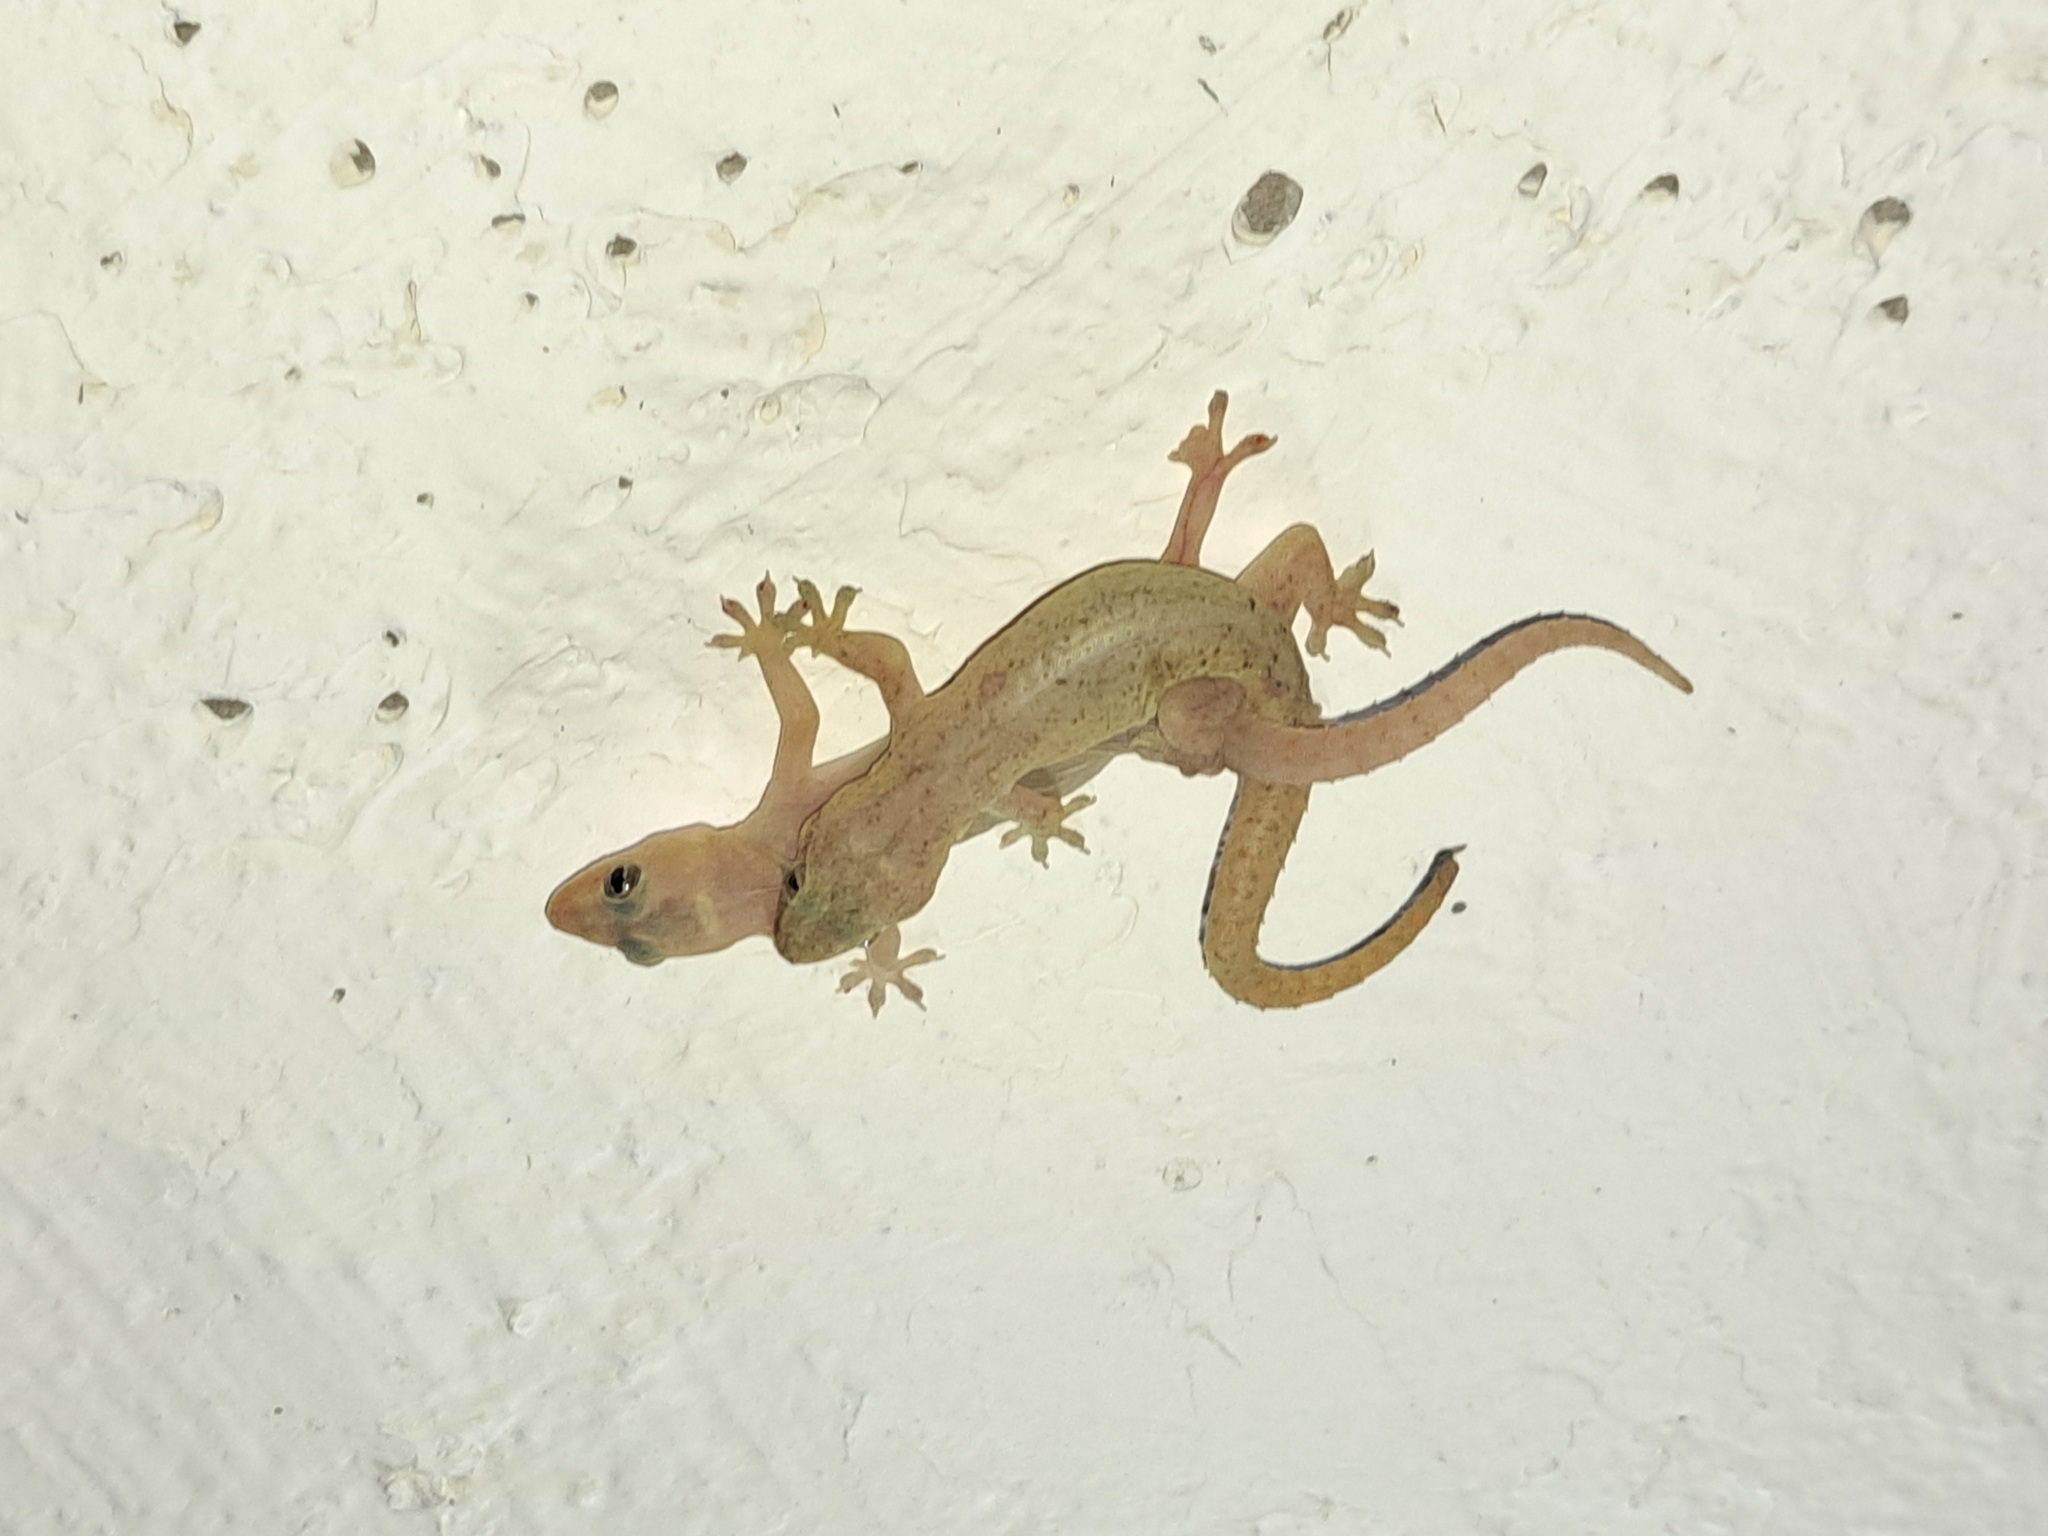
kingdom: Animalia
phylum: Chordata
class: Squamata
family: Gekkonidae
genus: Hemidactylus
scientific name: Hemidactylus frenatus
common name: Common house gecko
